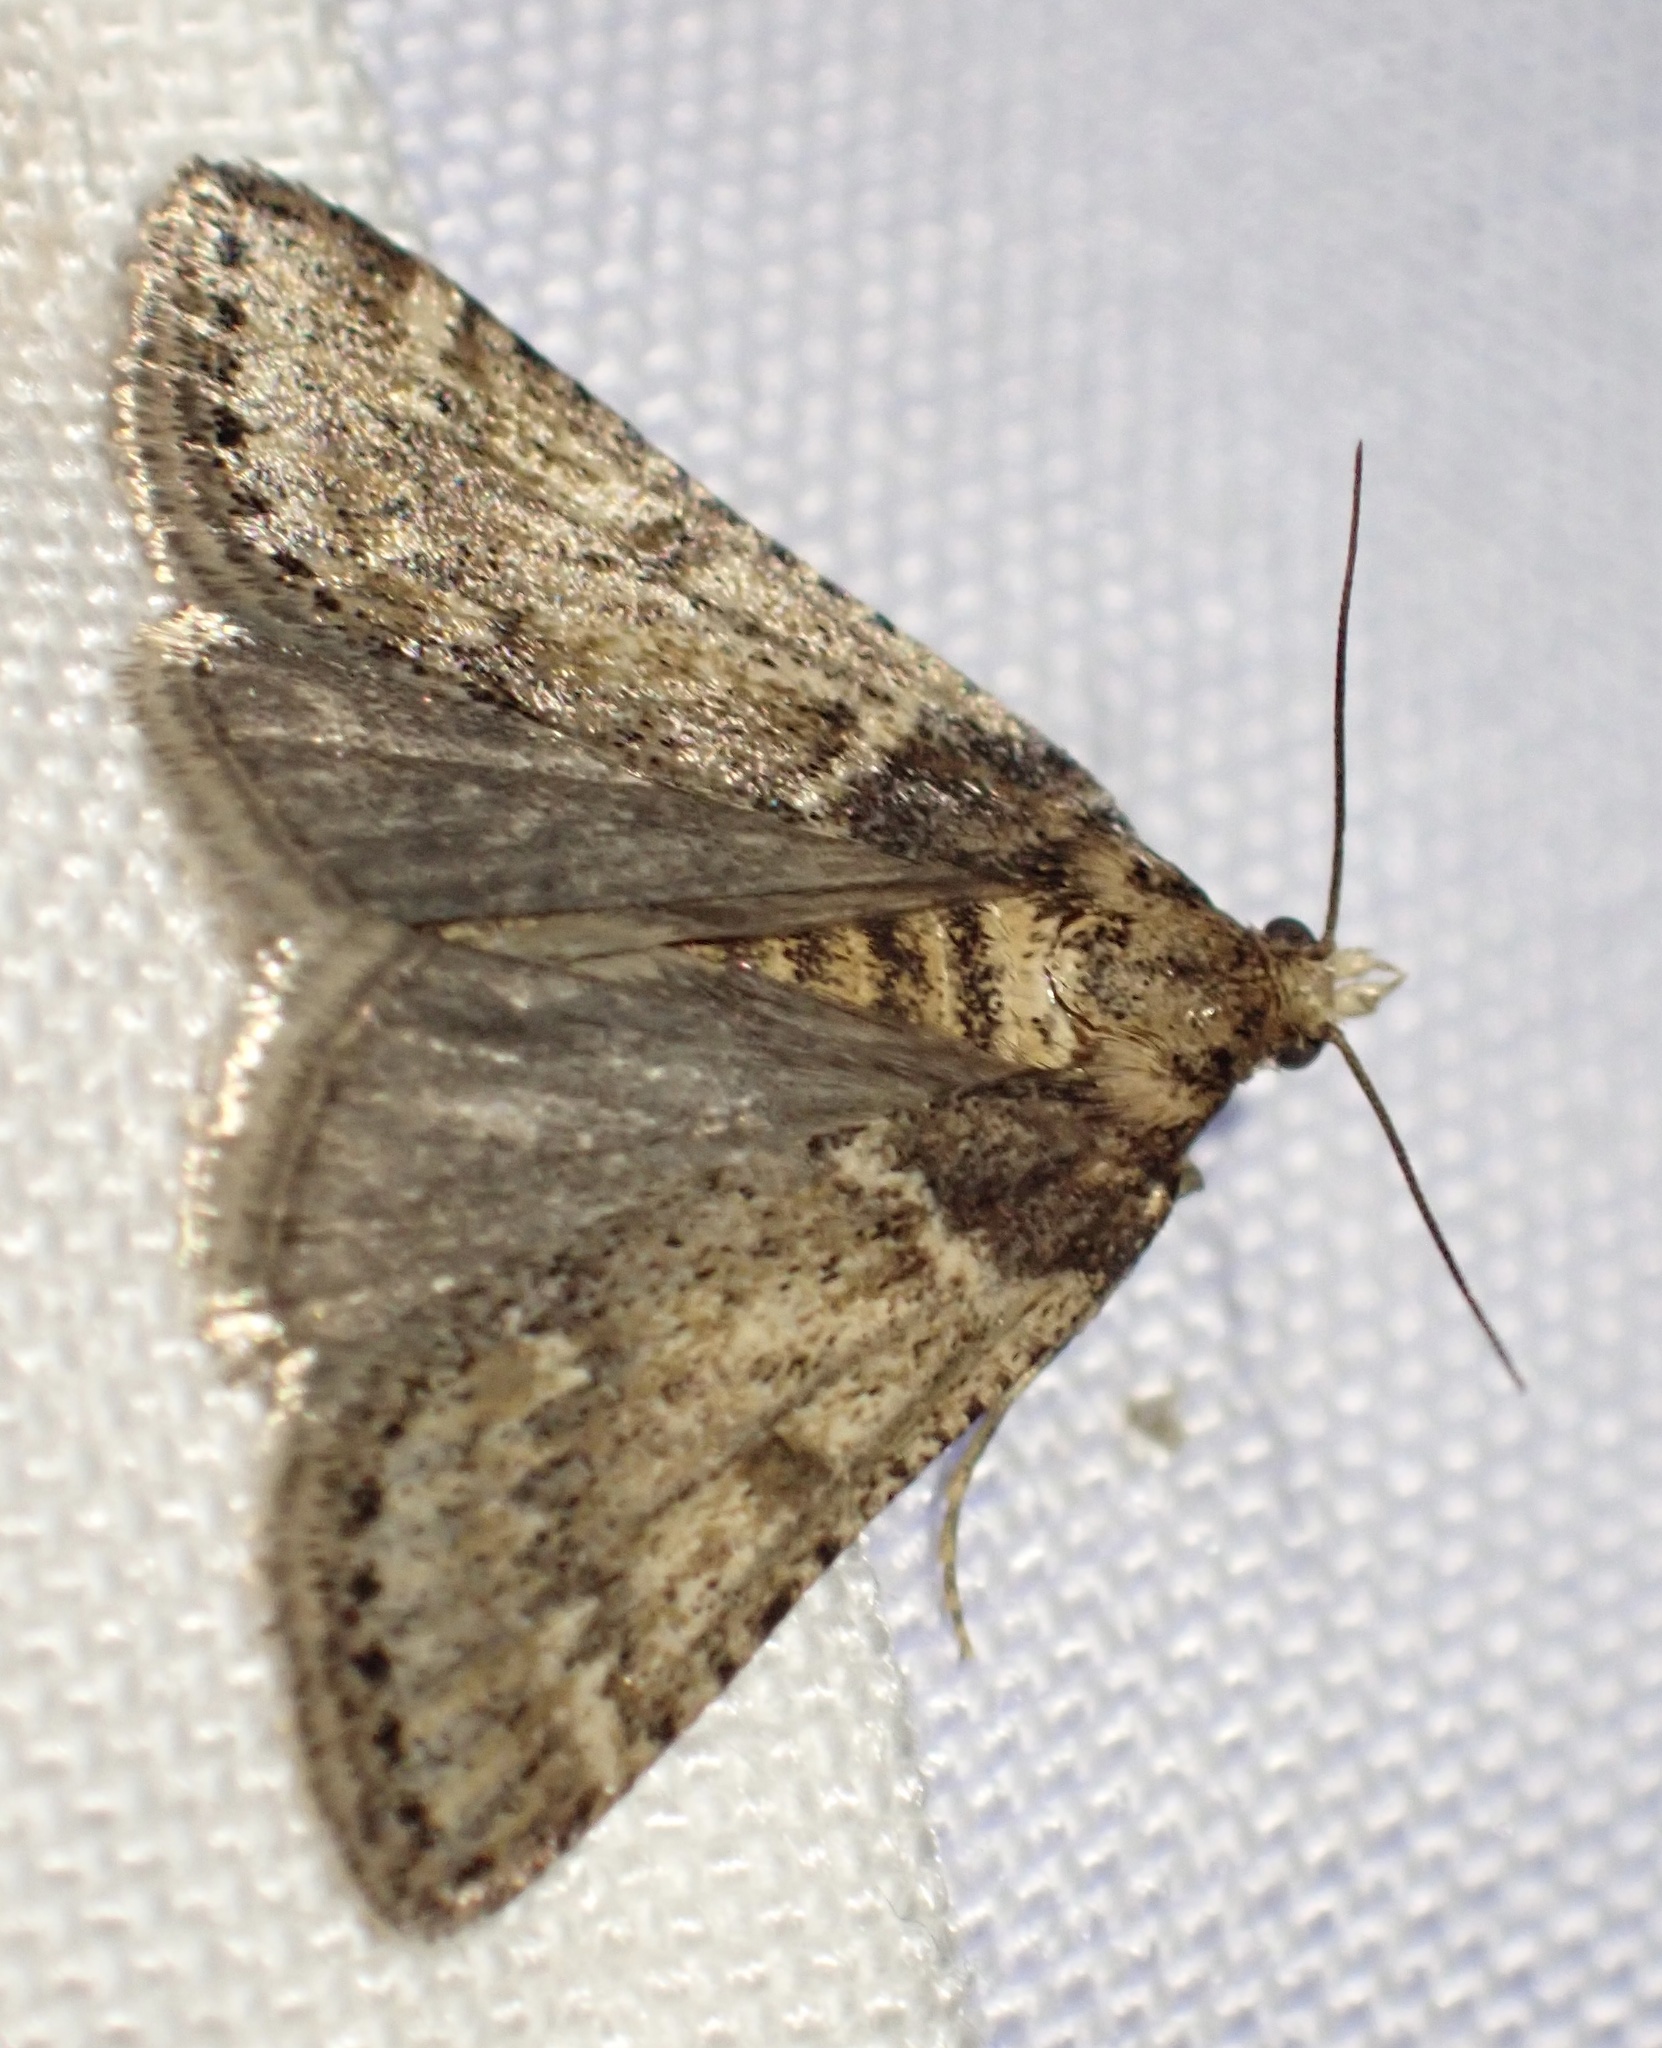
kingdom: Animalia
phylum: Arthropoda
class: Insecta
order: Lepidoptera
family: Pyralidae
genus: Philotis
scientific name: Philotis basalis
